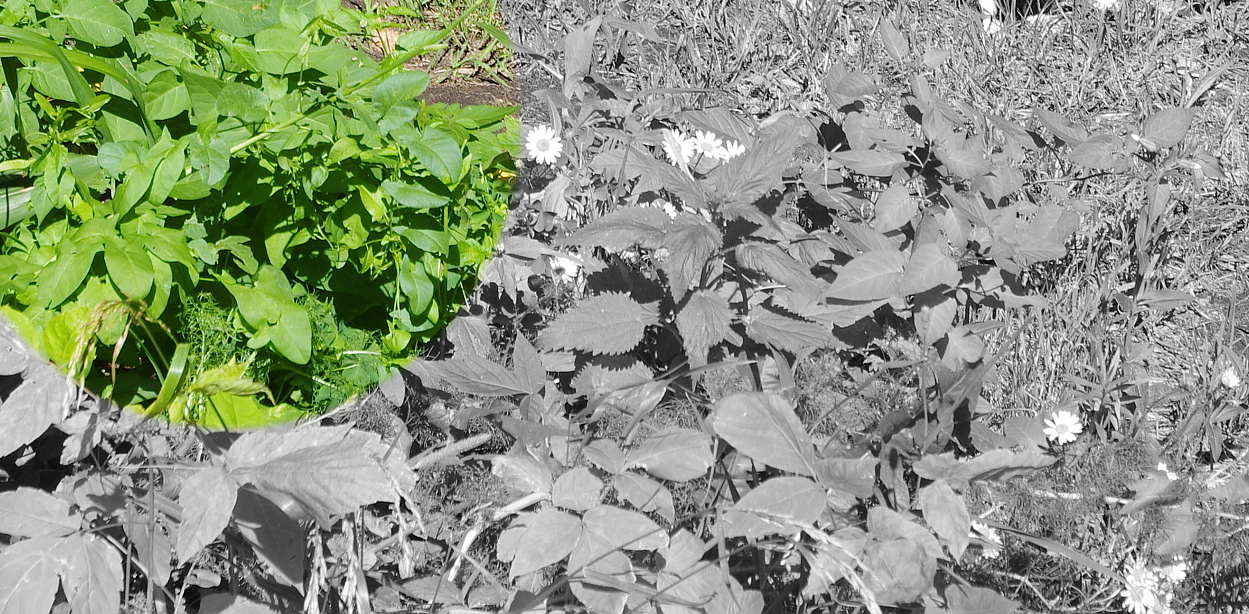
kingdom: Plantae
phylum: Tracheophyta
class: Magnoliopsida
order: Solanales
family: Convolvulaceae
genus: Convolvulus
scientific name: Convolvulus arvensis
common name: Field bindweed
